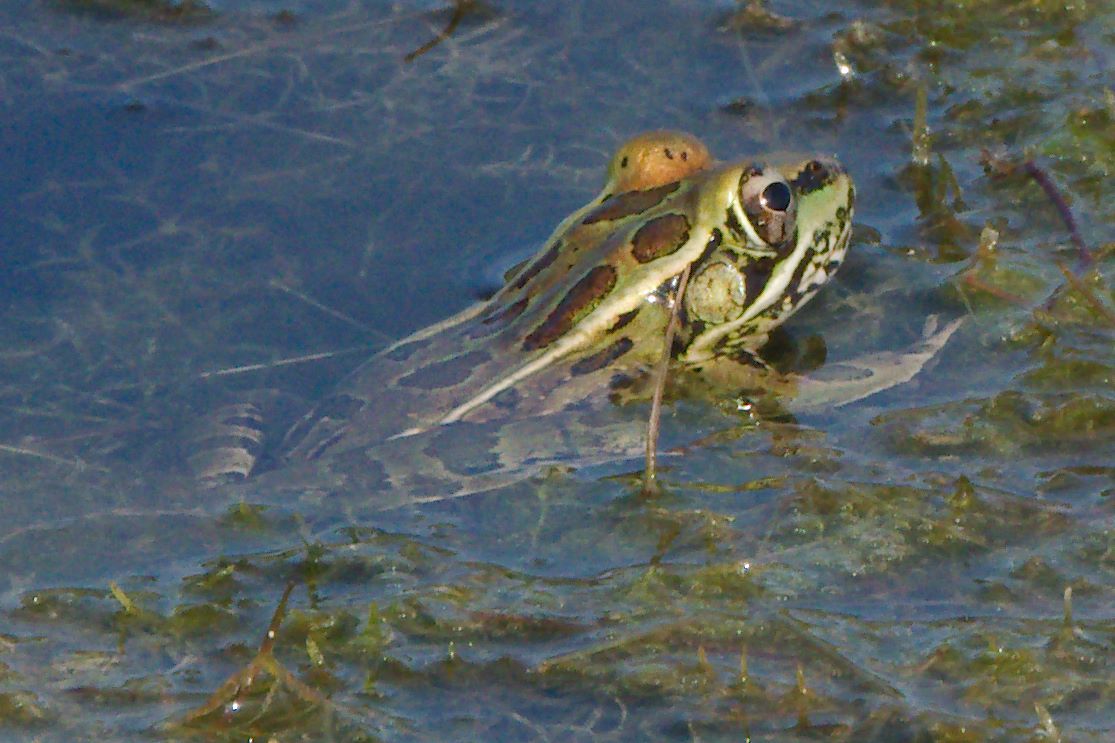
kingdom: Animalia
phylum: Chordata
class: Amphibia
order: Anura
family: Ranidae
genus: Lithobates
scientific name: Lithobates berlandieri
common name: Rio grande leopard frog
